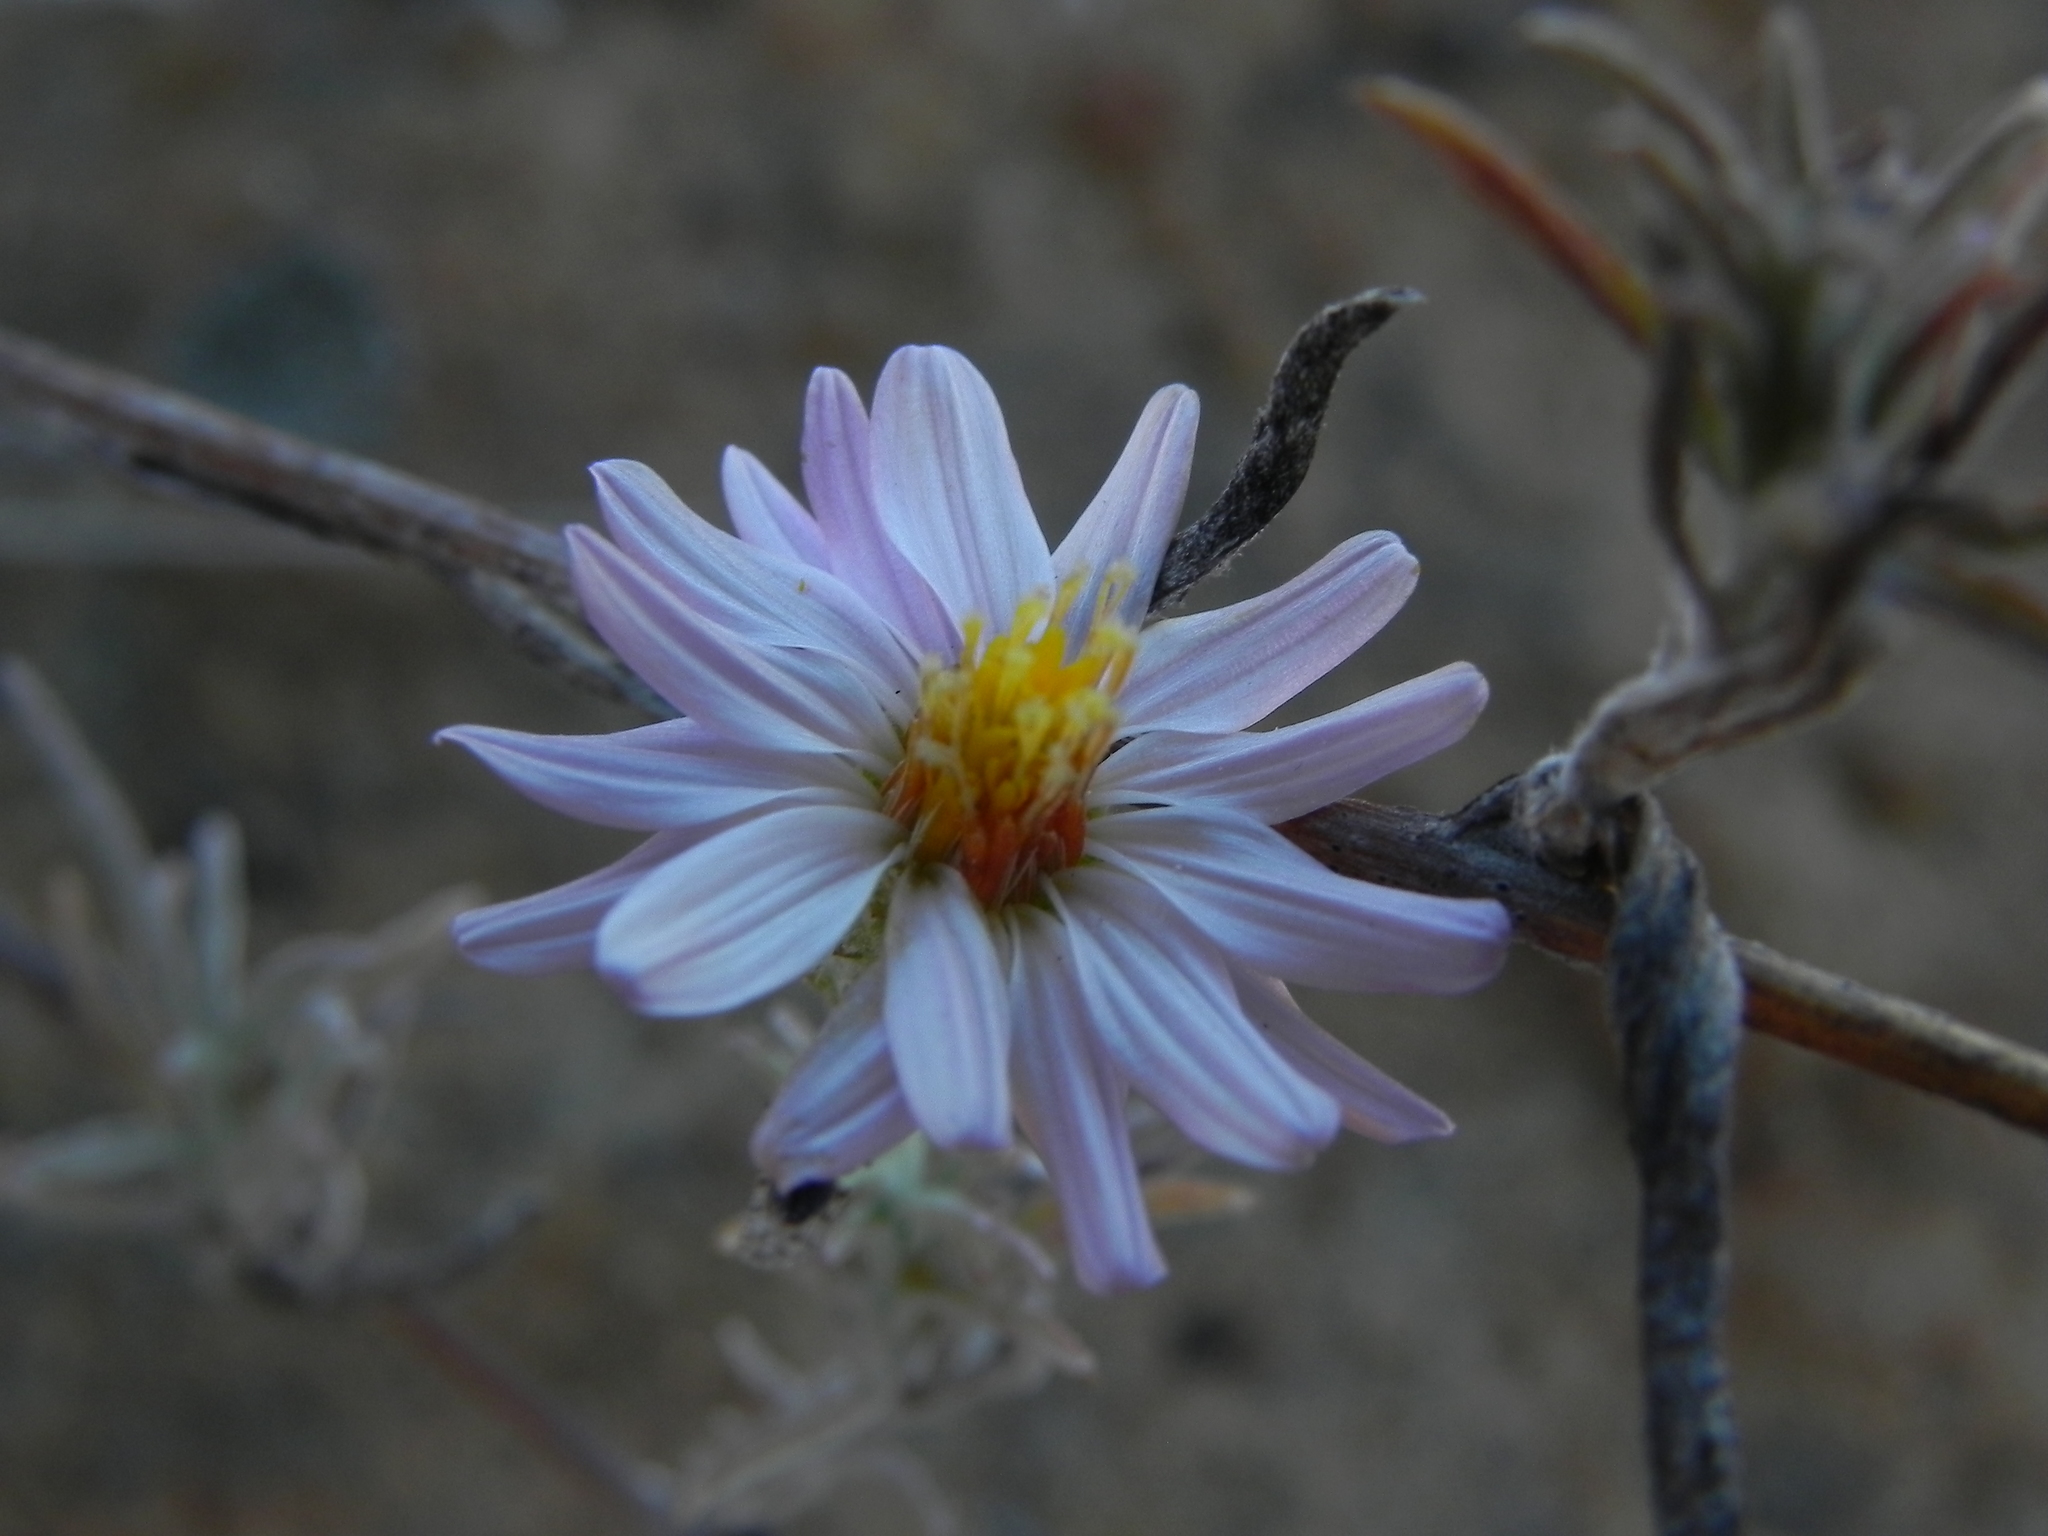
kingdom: Plantae
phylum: Tracheophyta
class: Magnoliopsida
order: Asterales
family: Asteraceae
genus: Corethrogyne
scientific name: Corethrogyne filaginifolia
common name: Sand-aster
